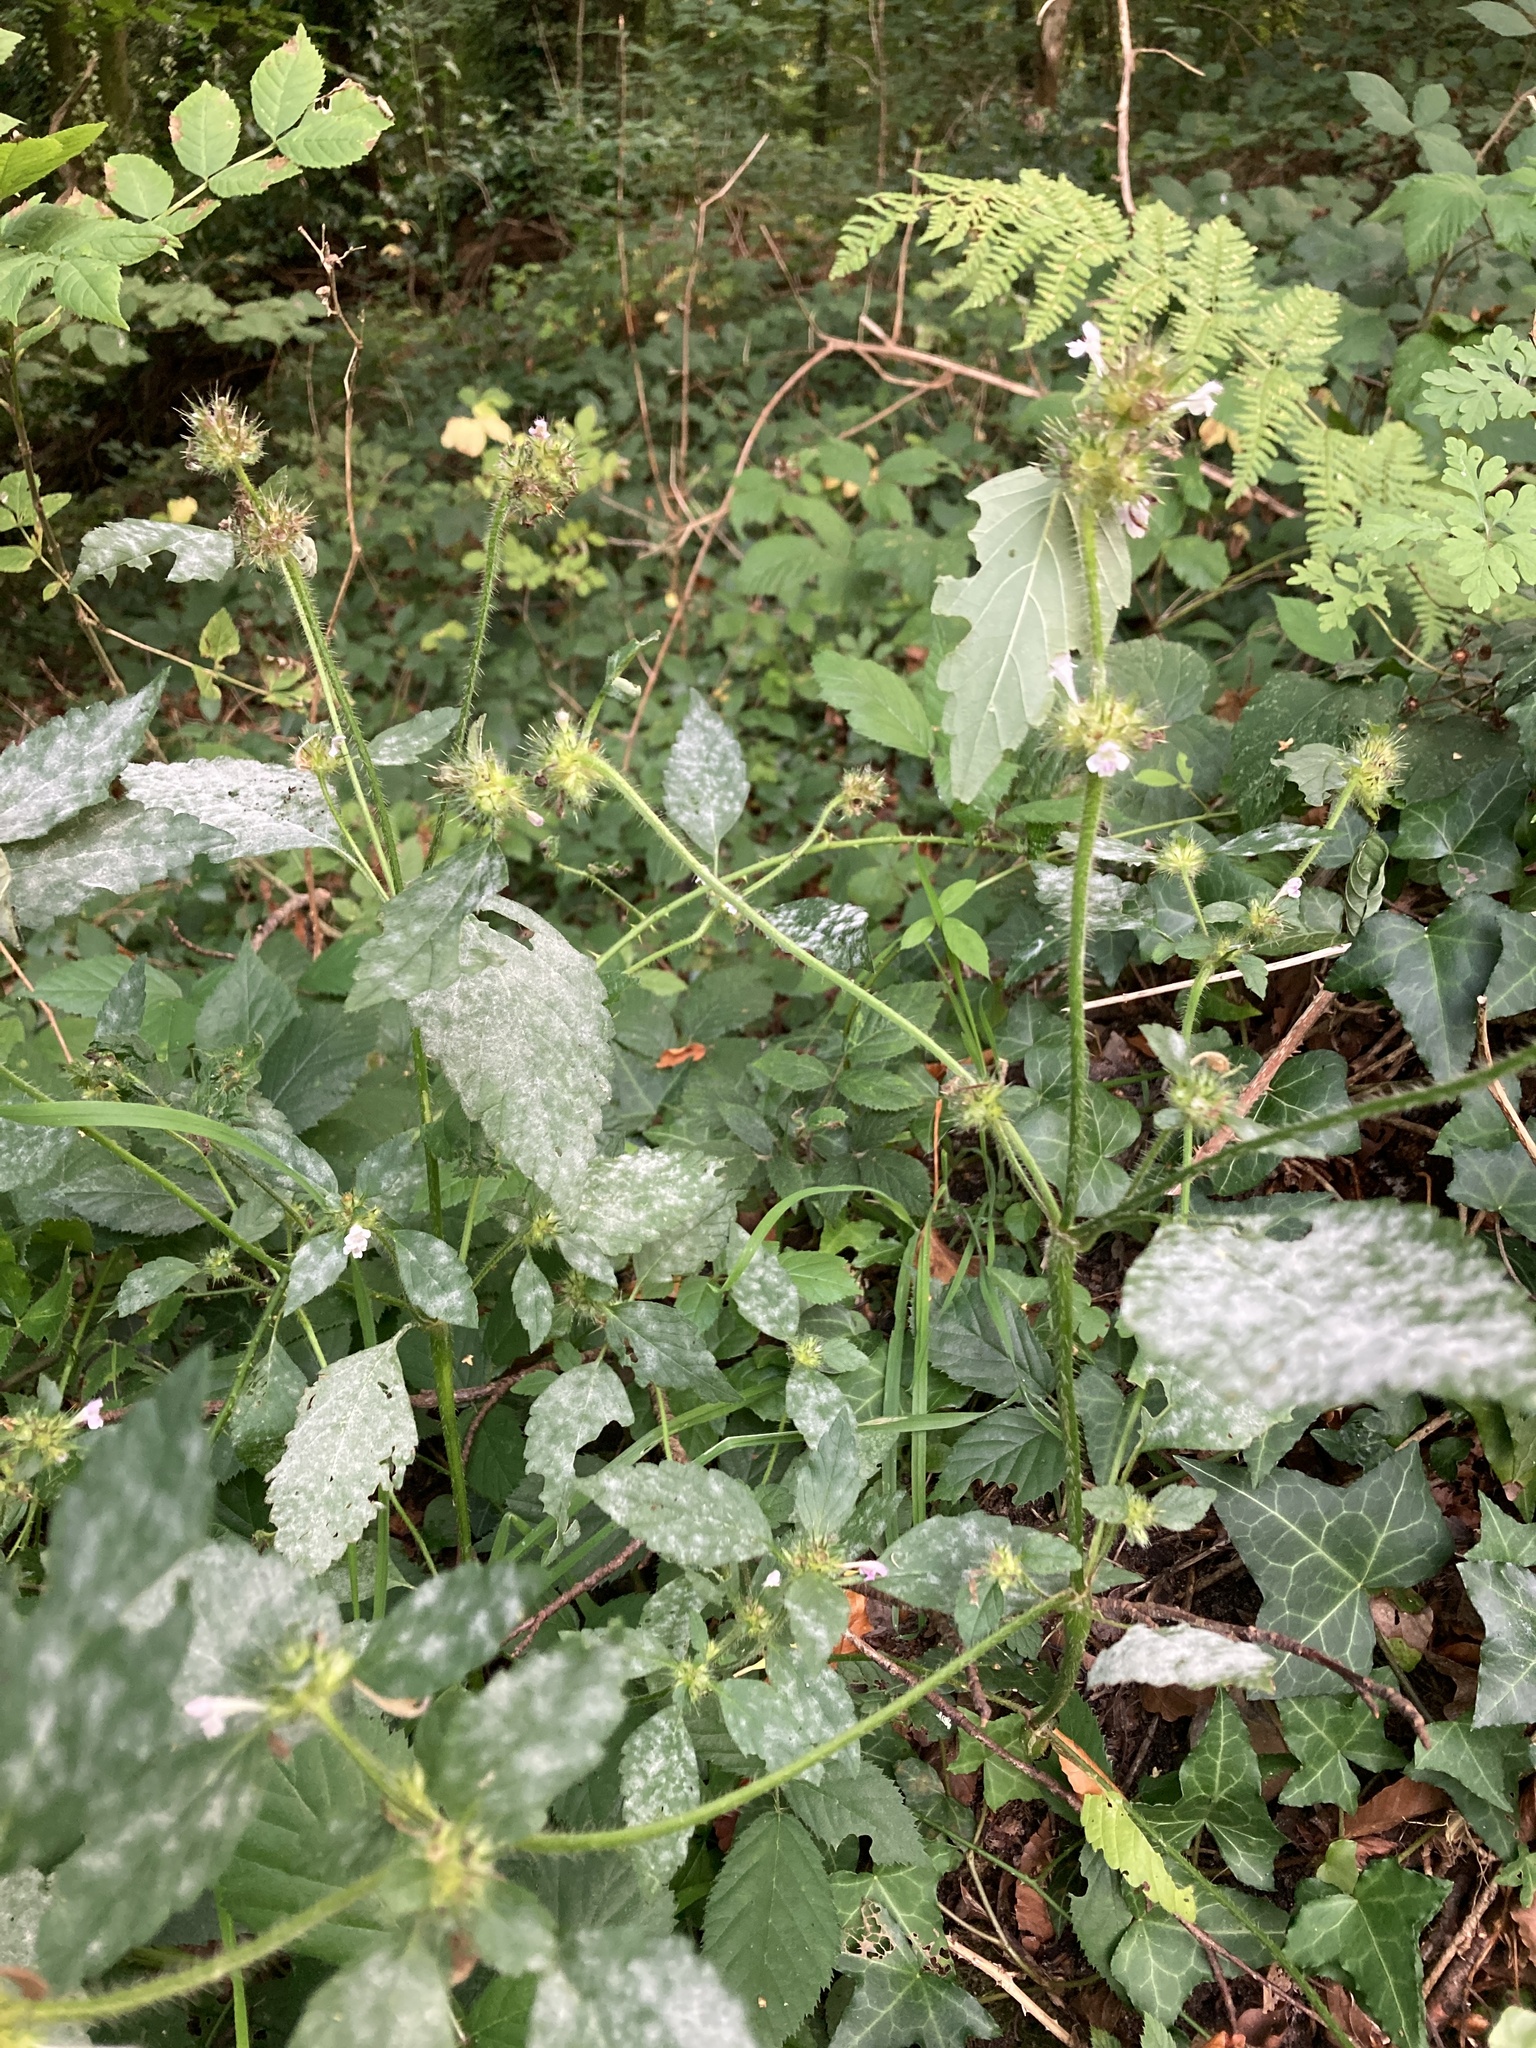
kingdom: Plantae
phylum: Tracheophyta
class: Magnoliopsida
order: Lamiales
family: Lamiaceae
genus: Galeopsis
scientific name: Galeopsis tetrahit
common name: Common hemp-nettle
